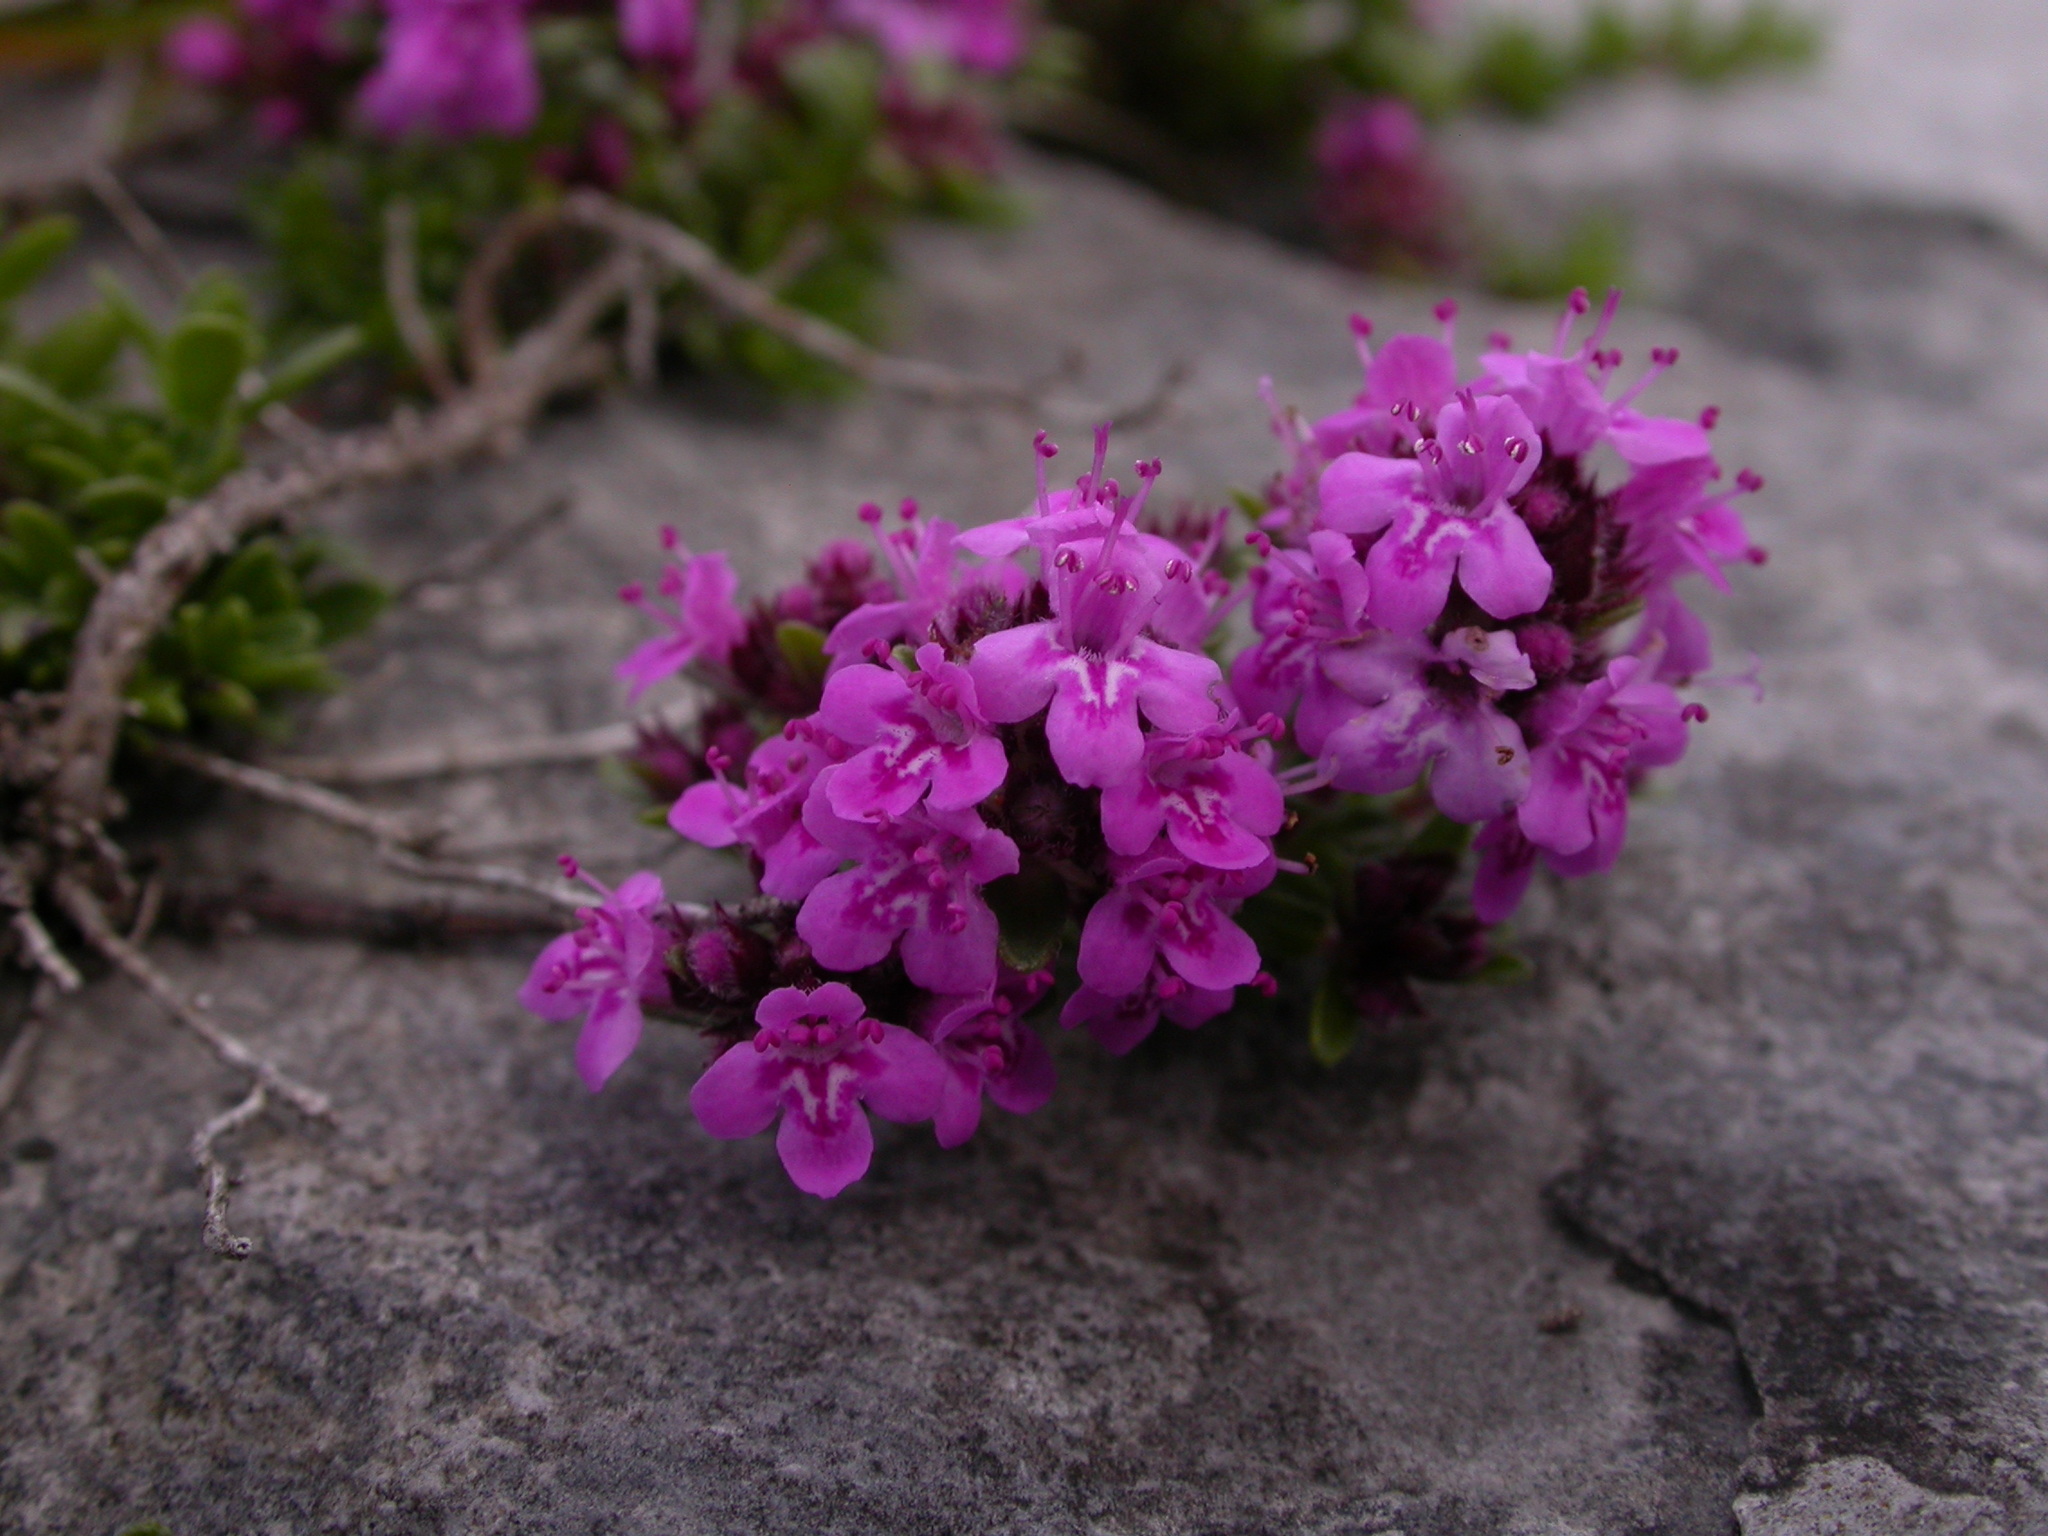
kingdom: Plantae
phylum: Tracheophyta
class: Magnoliopsida
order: Lamiales
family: Lamiaceae
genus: Thymus
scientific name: Thymus praecox
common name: Wild thyme
